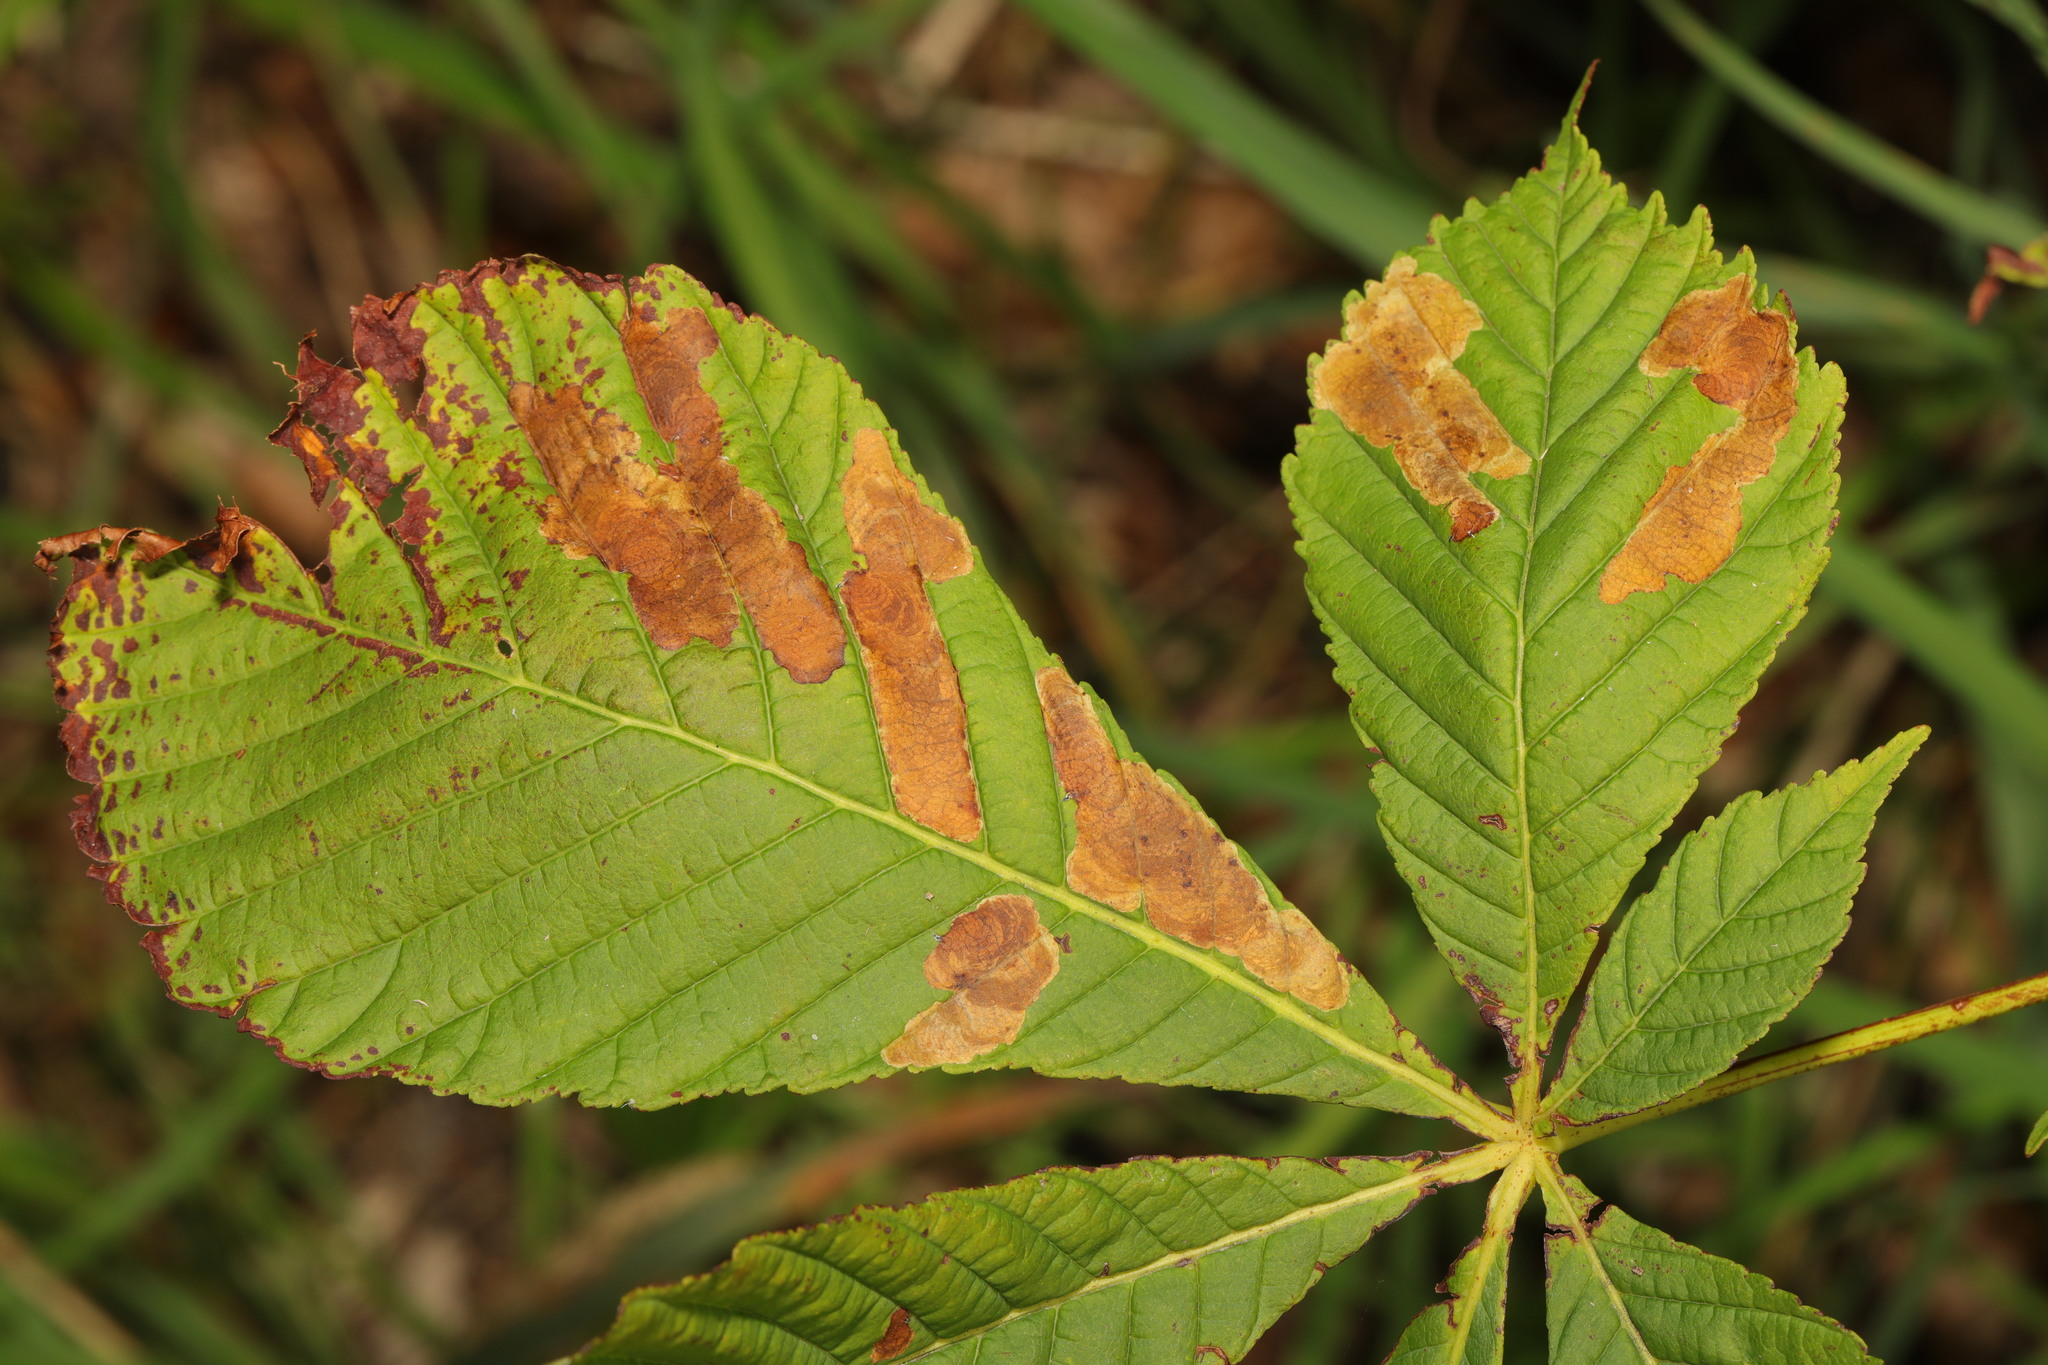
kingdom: Animalia
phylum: Arthropoda
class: Insecta
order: Lepidoptera
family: Gracillariidae
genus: Cameraria
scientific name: Cameraria ohridella
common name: Horse-chestnut leaf-miner
